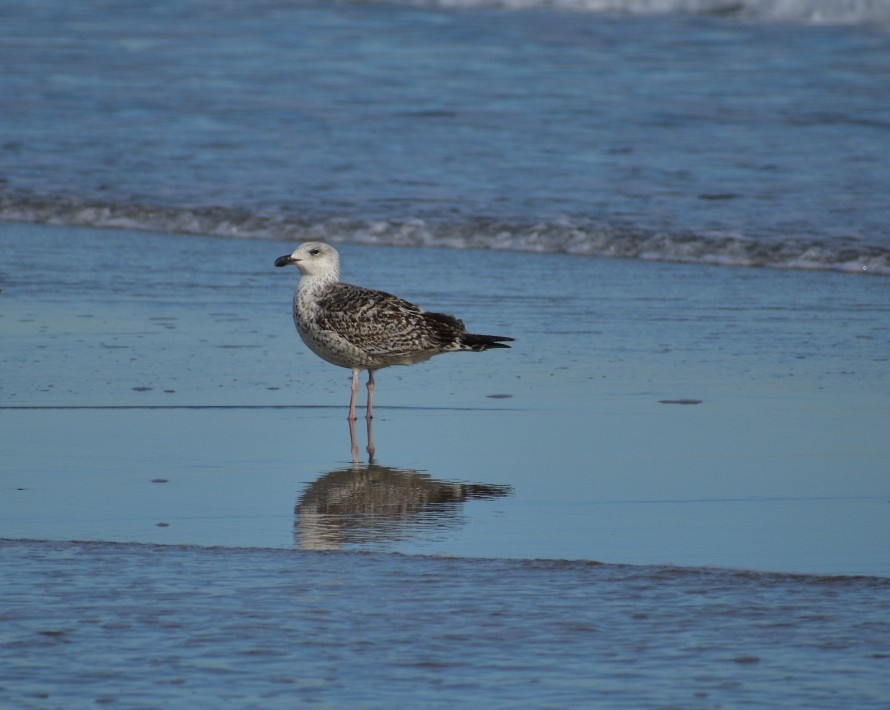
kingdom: Animalia
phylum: Chordata
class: Aves
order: Charadriiformes
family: Laridae
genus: Larus
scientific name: Larus marinus
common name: Great black-backed gull
